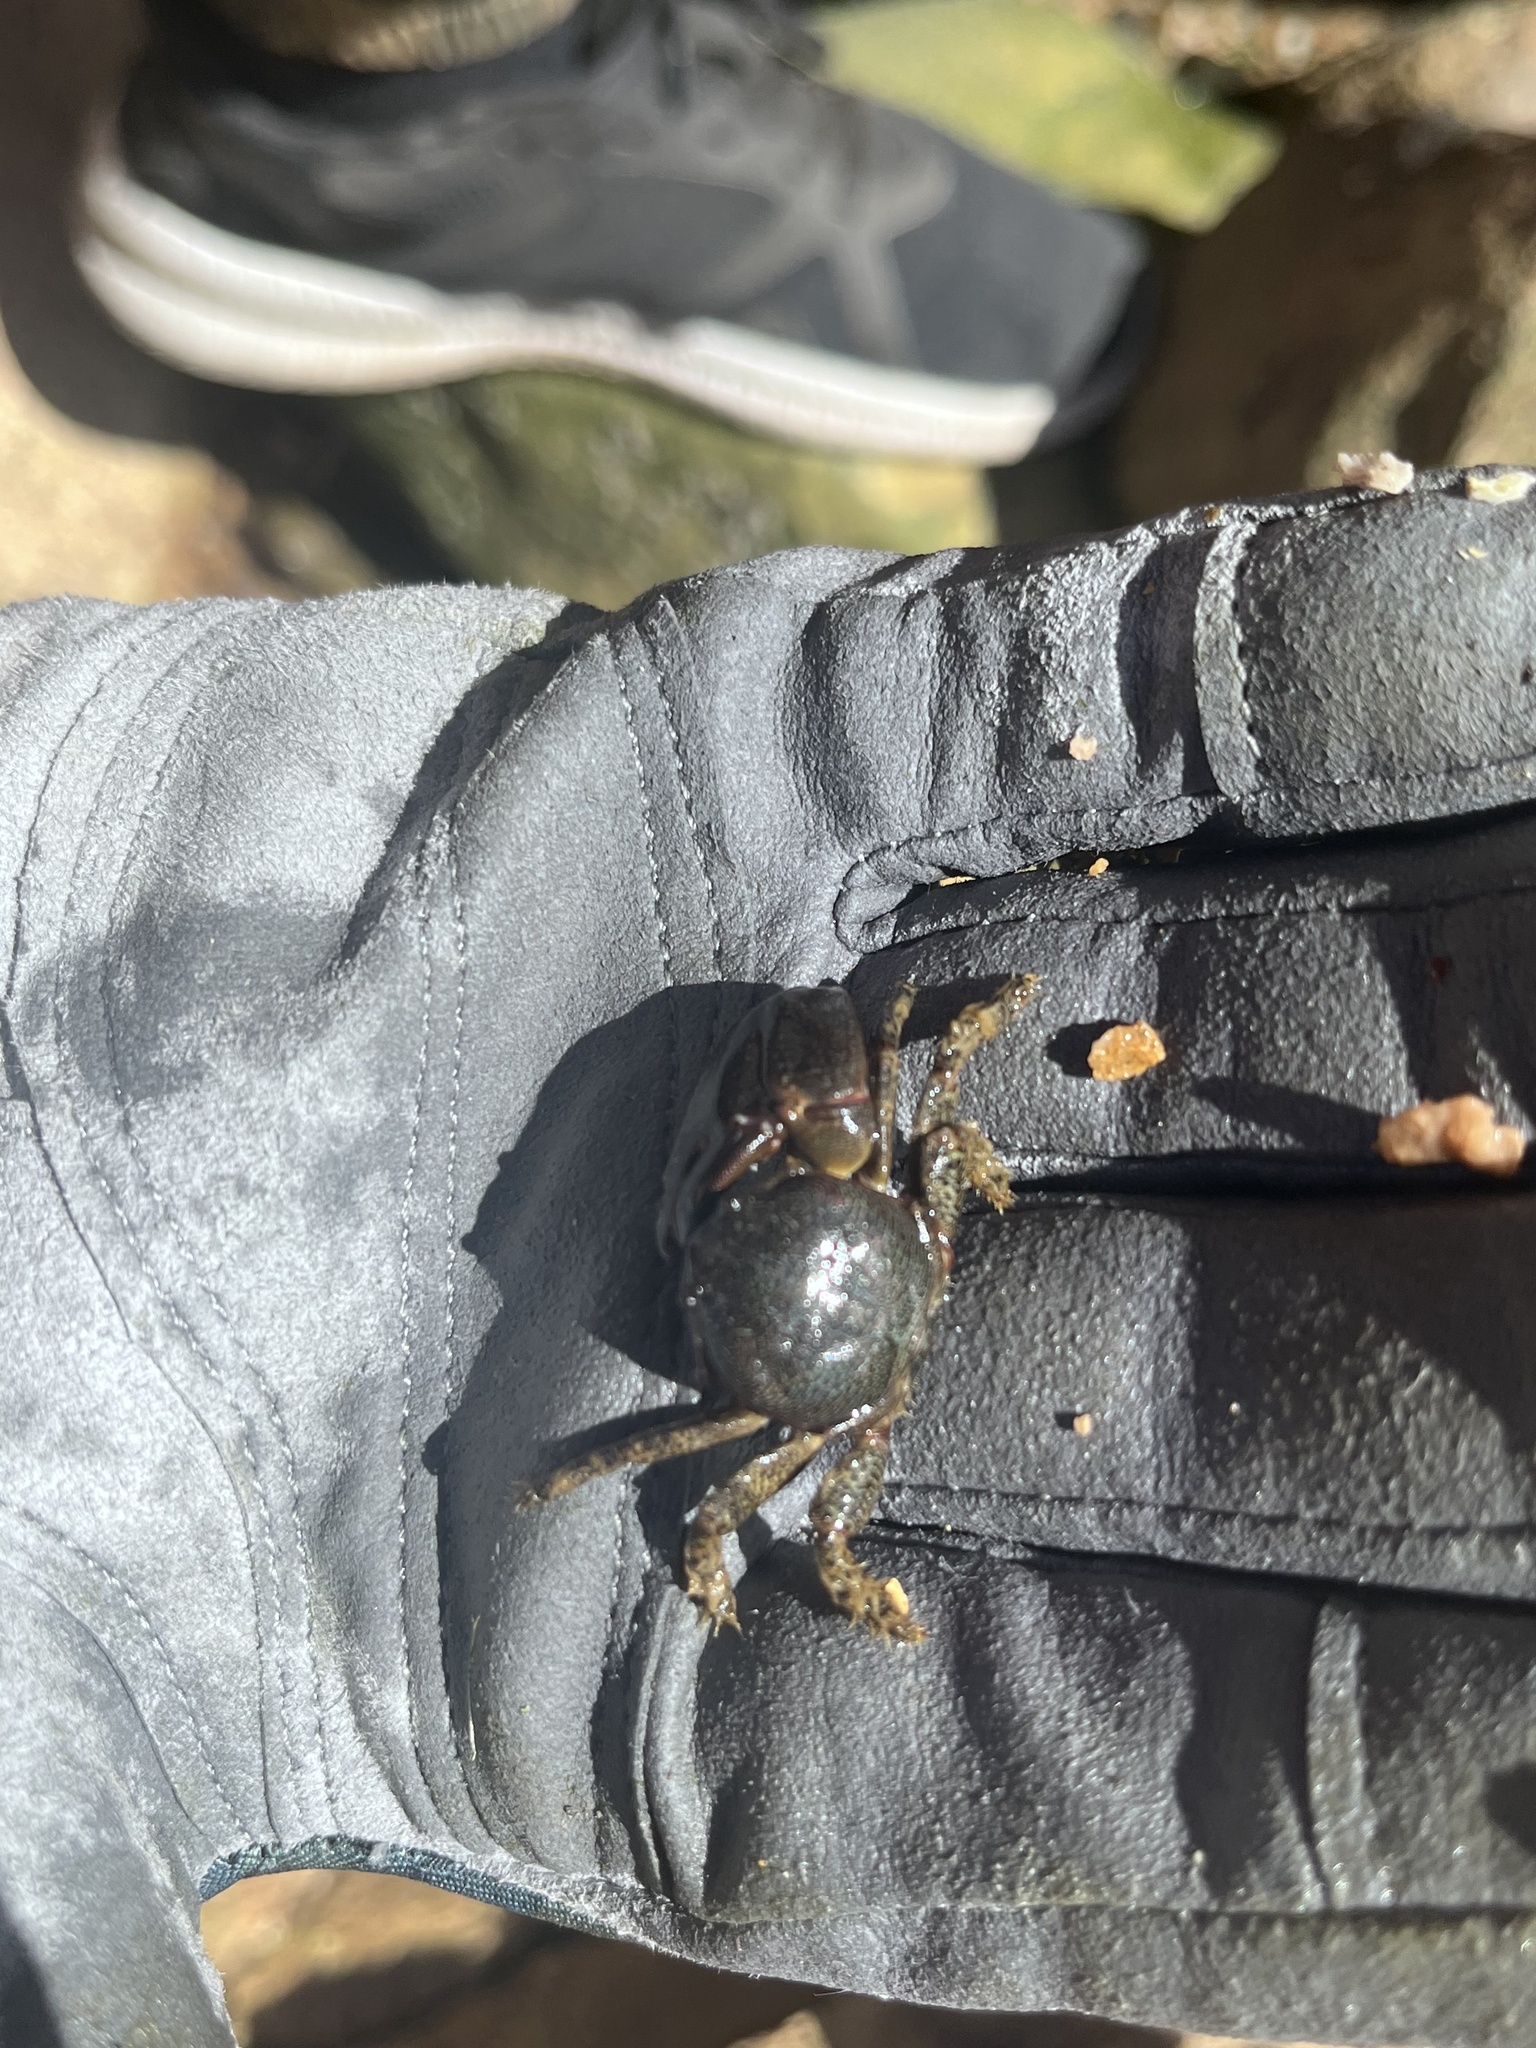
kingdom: Animalia
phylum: Arthropoda
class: Malacostraca
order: Decapoda
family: Porcellanidae
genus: Petrolisthes
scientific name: Petrolisthes granulosus
